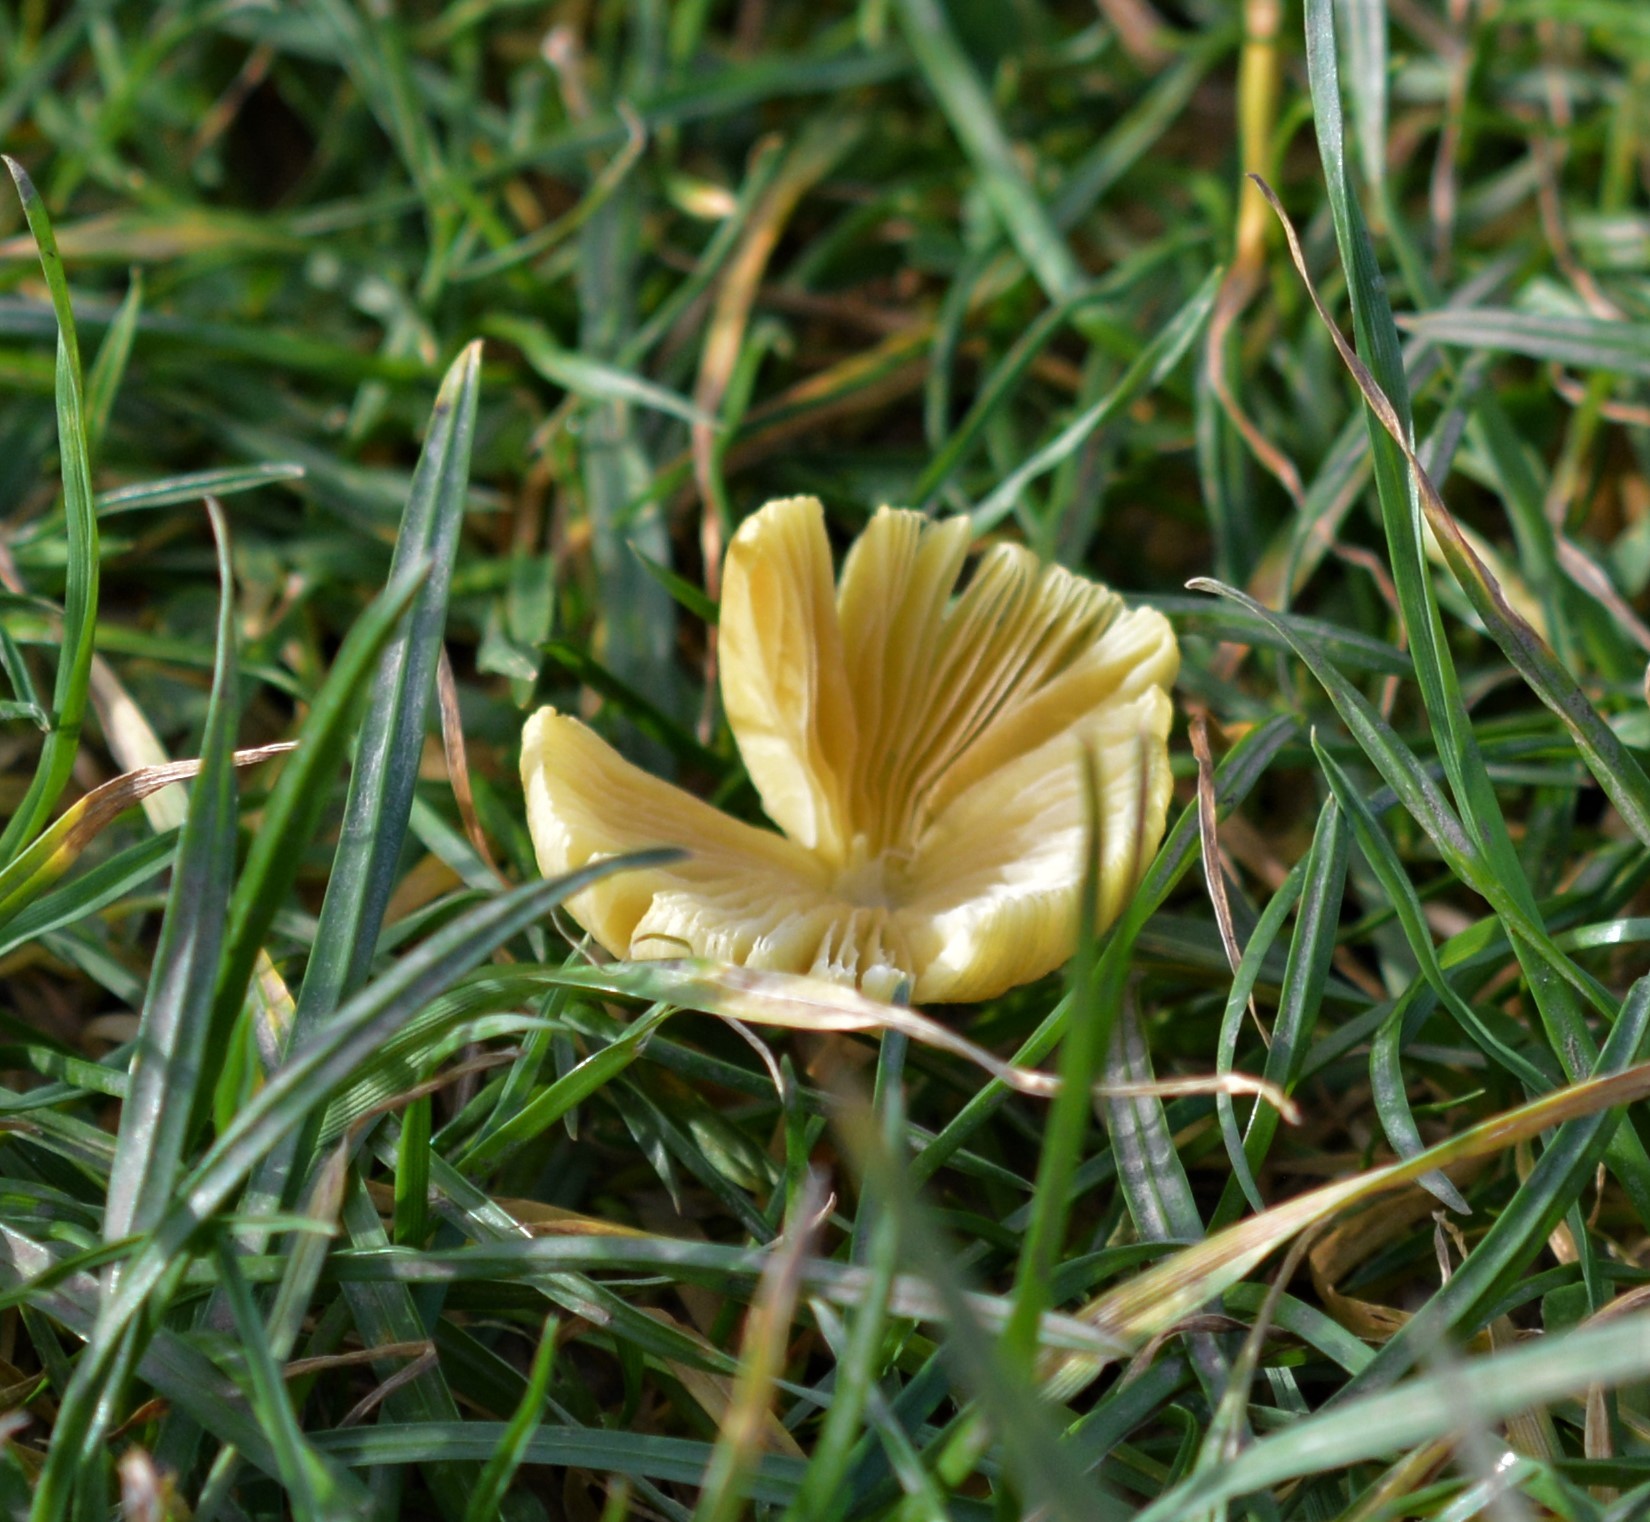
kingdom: Fungi
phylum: Basidiomycota
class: Agaricomycetes
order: Agaricales
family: Bolbitiaceae
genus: Bolbitius
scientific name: Bolbitius titubans
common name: Yellow fieldcap
